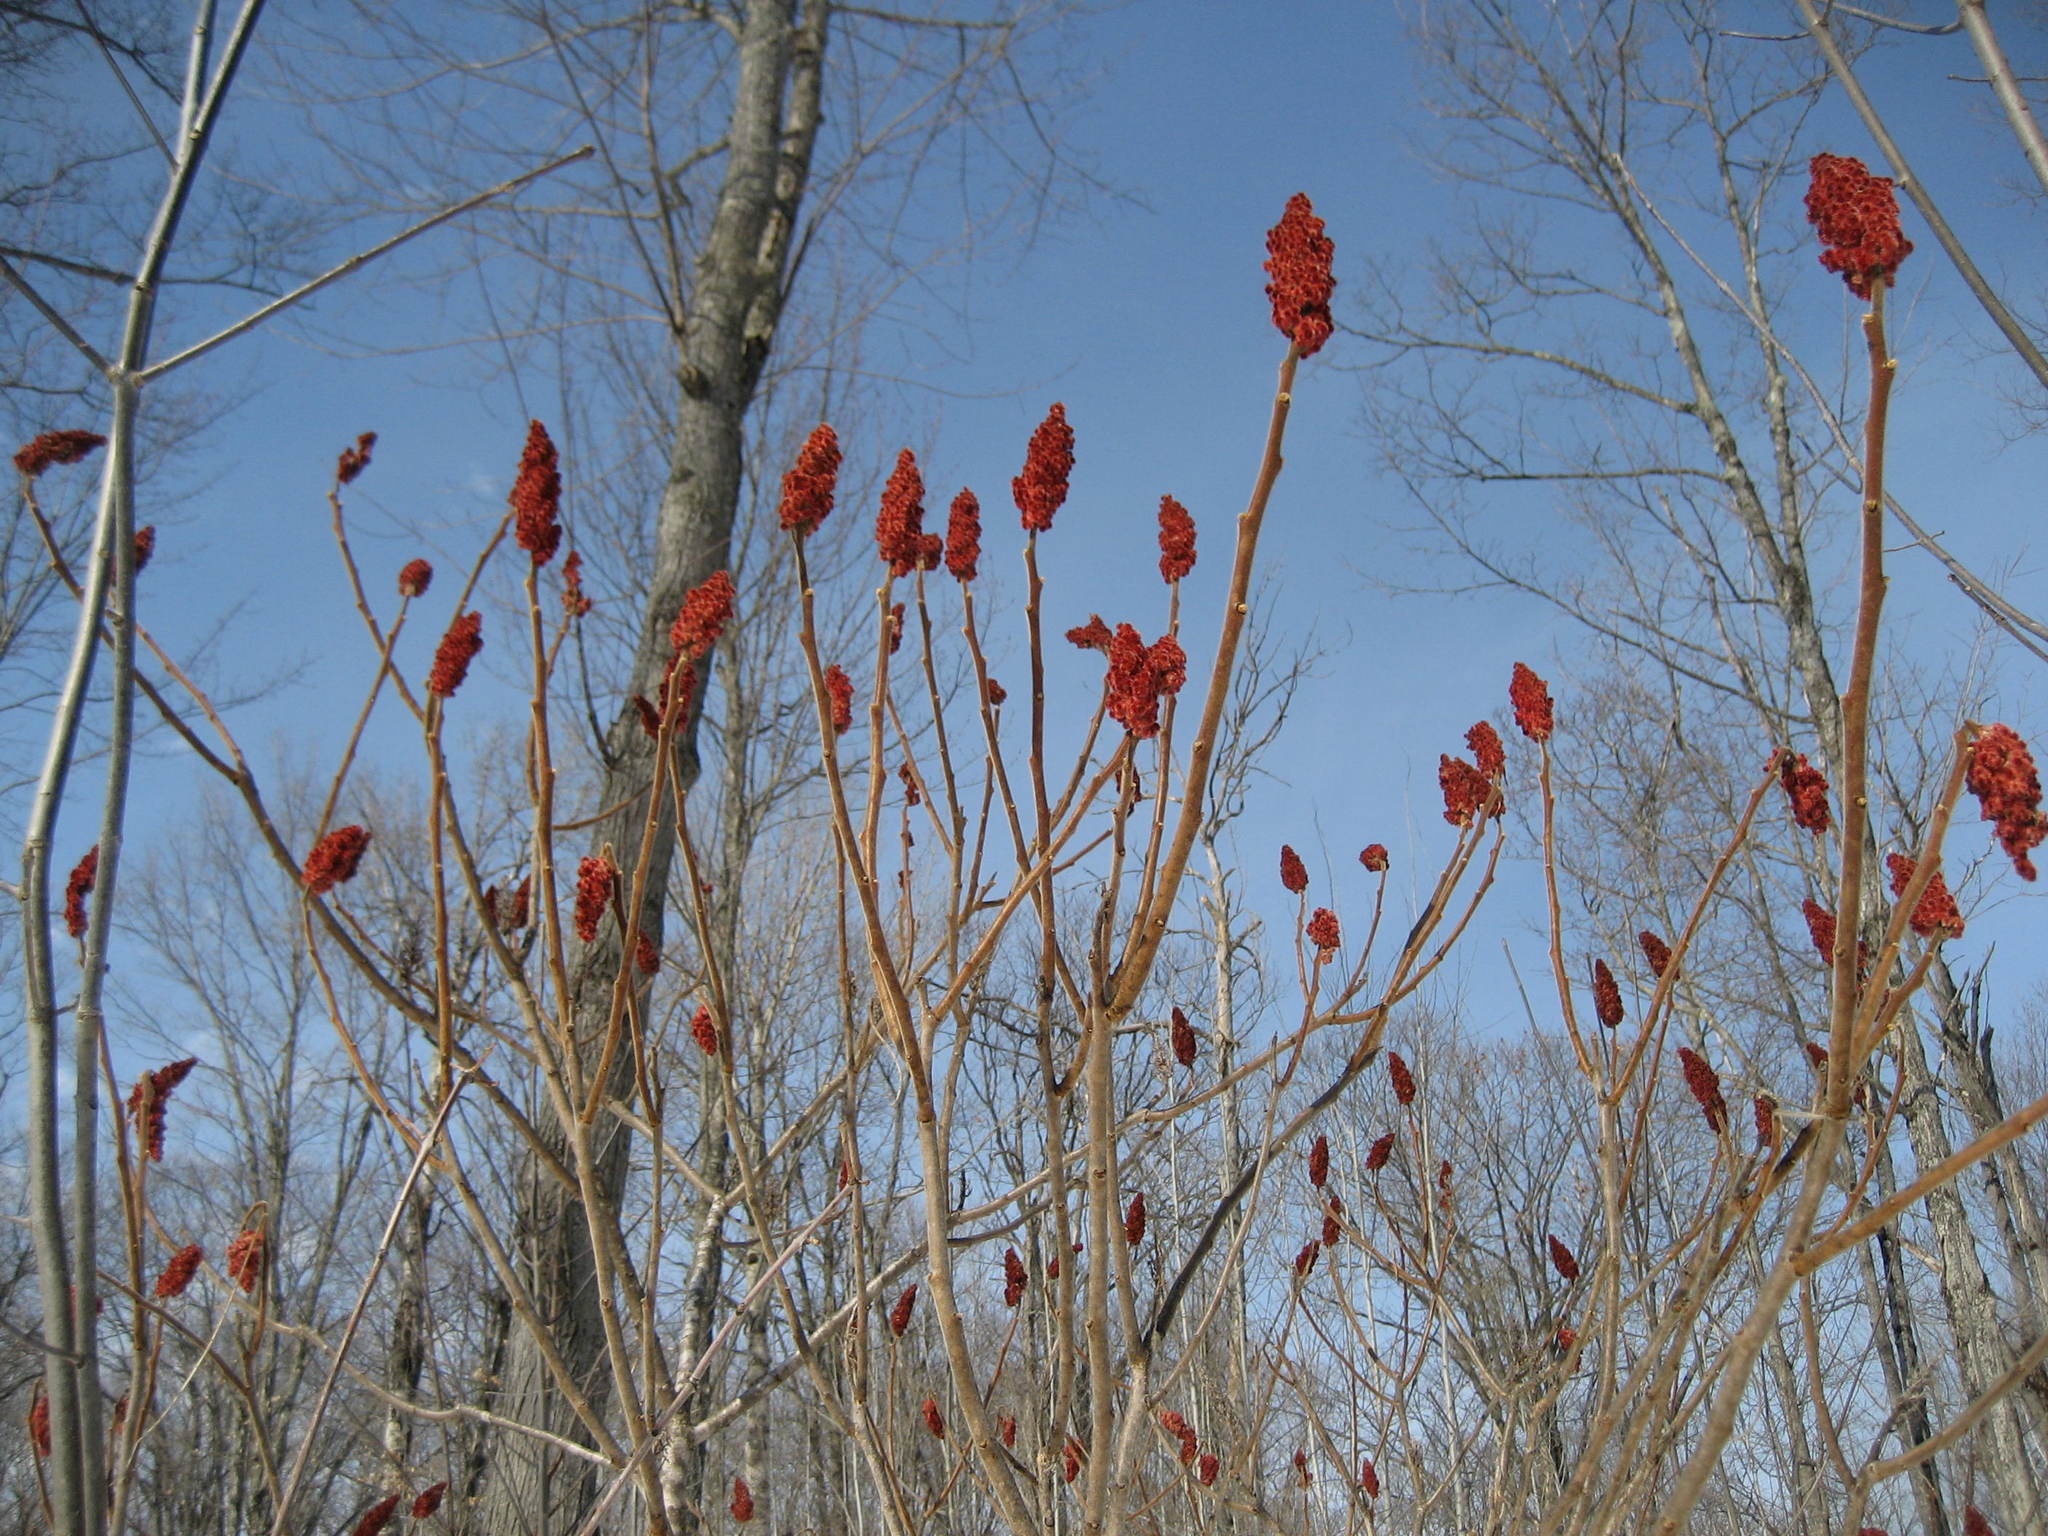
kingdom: Plantae
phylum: Tracheophyta
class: Magnoliopsida
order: Sapindales
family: Anacardiaceae
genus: Rhus
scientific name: Rhus typhina
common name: Staghorn sumac
